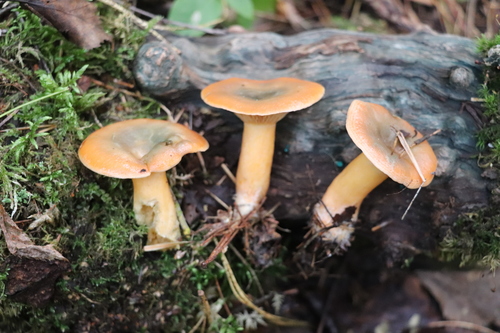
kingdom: Fungi
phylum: Basidiomycota
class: Agaricomycetes
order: Russulales
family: Russulaceae
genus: Lactarius
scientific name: Lactarius deterrimus
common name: False saffron milkcap
